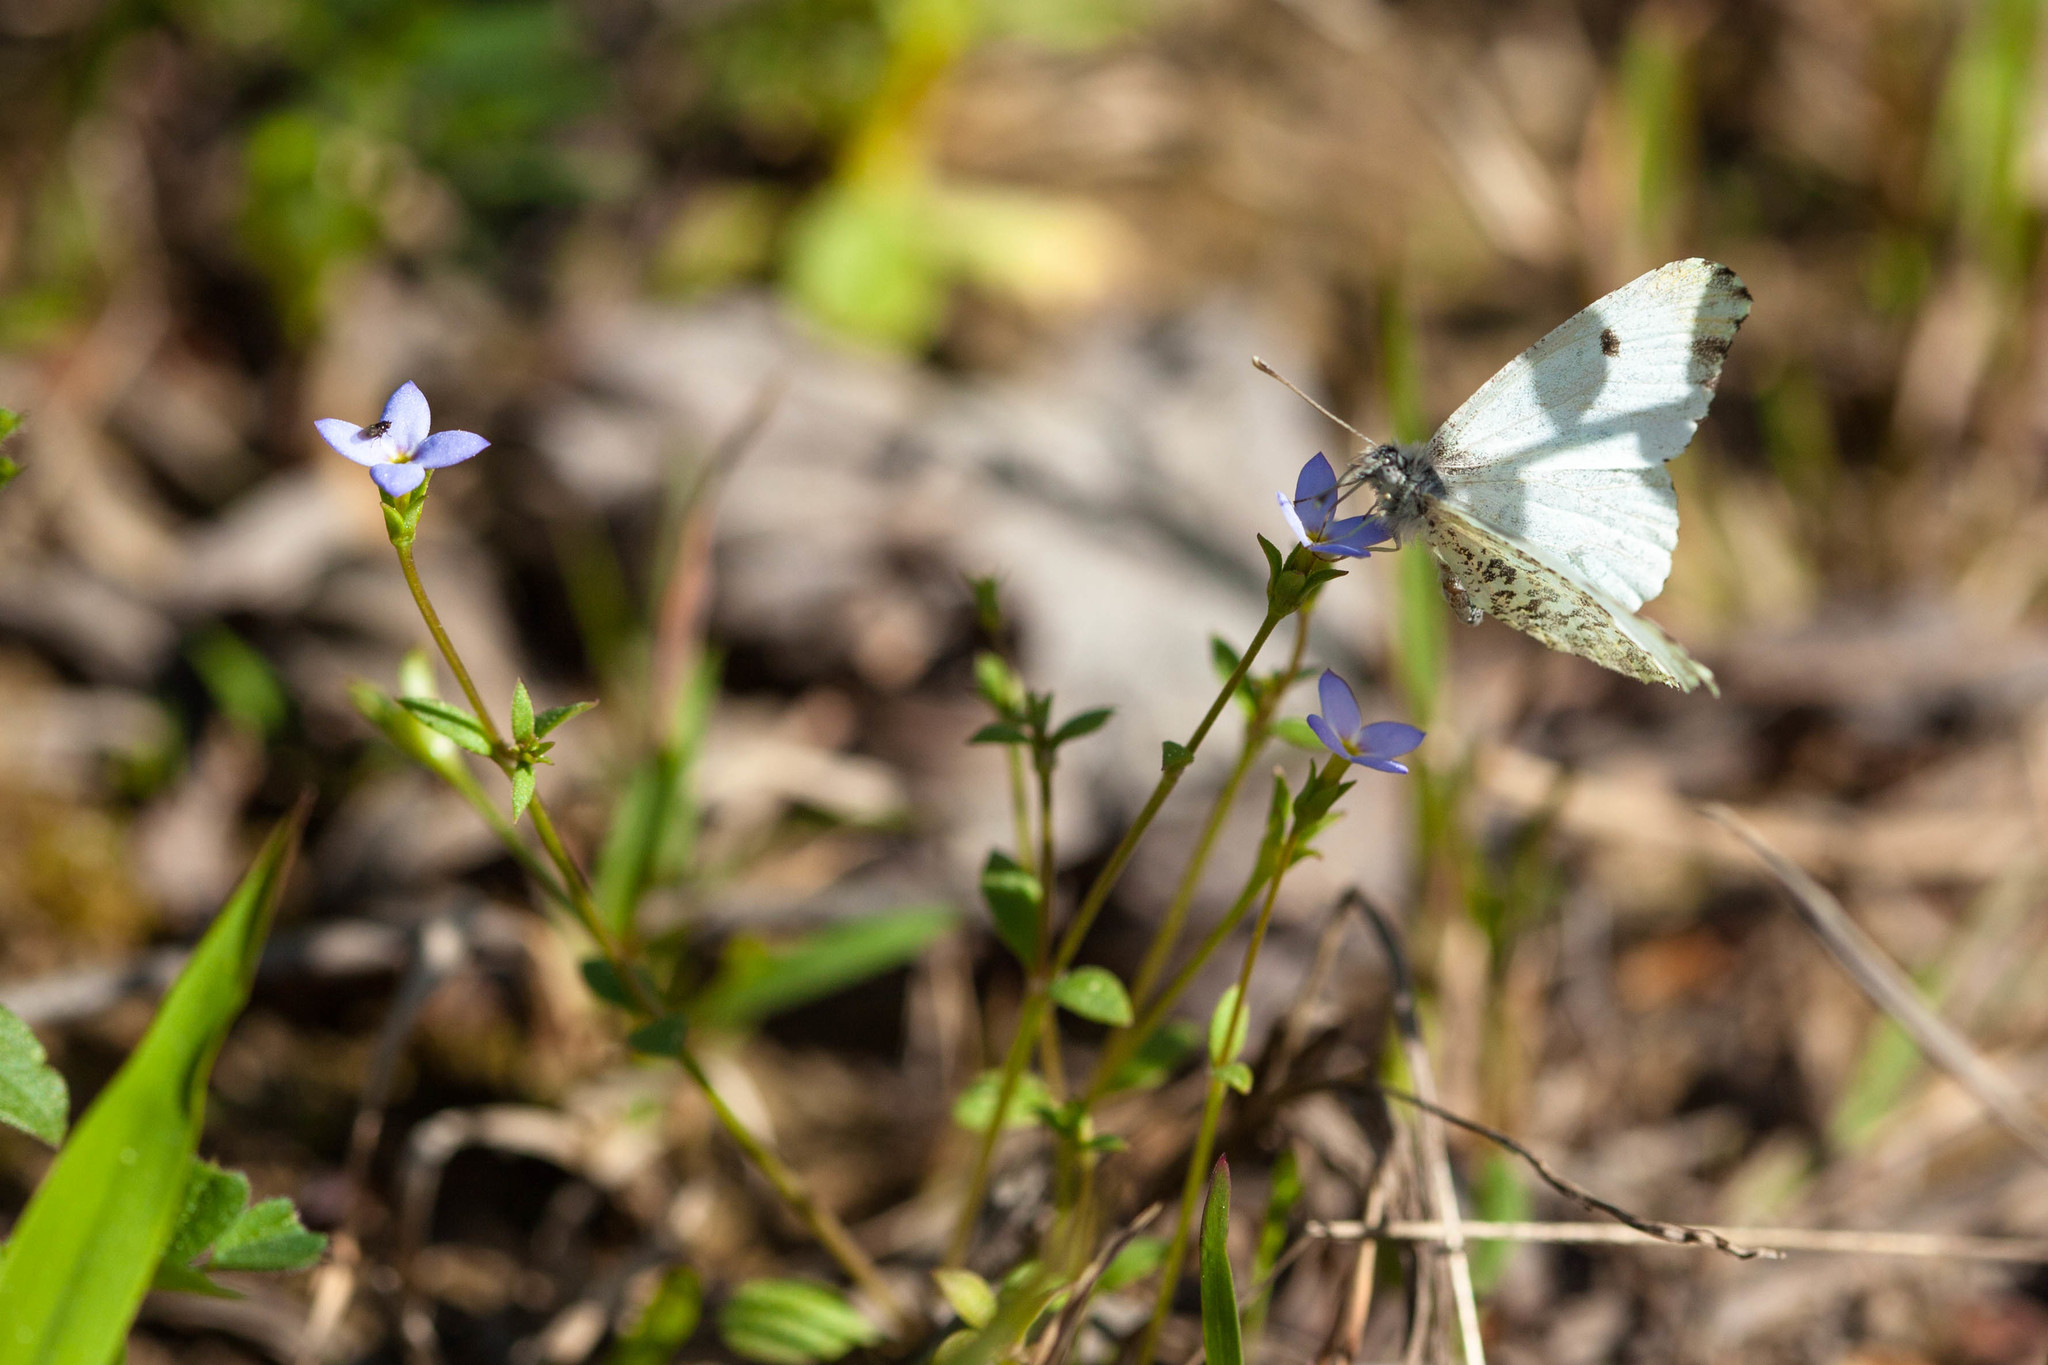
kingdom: Animalia
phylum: Arthropoda
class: Insecta
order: Lepidoptera
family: Pieridae
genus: Anthocharis
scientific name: Anthocharis midea
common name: Falcate orangetip
